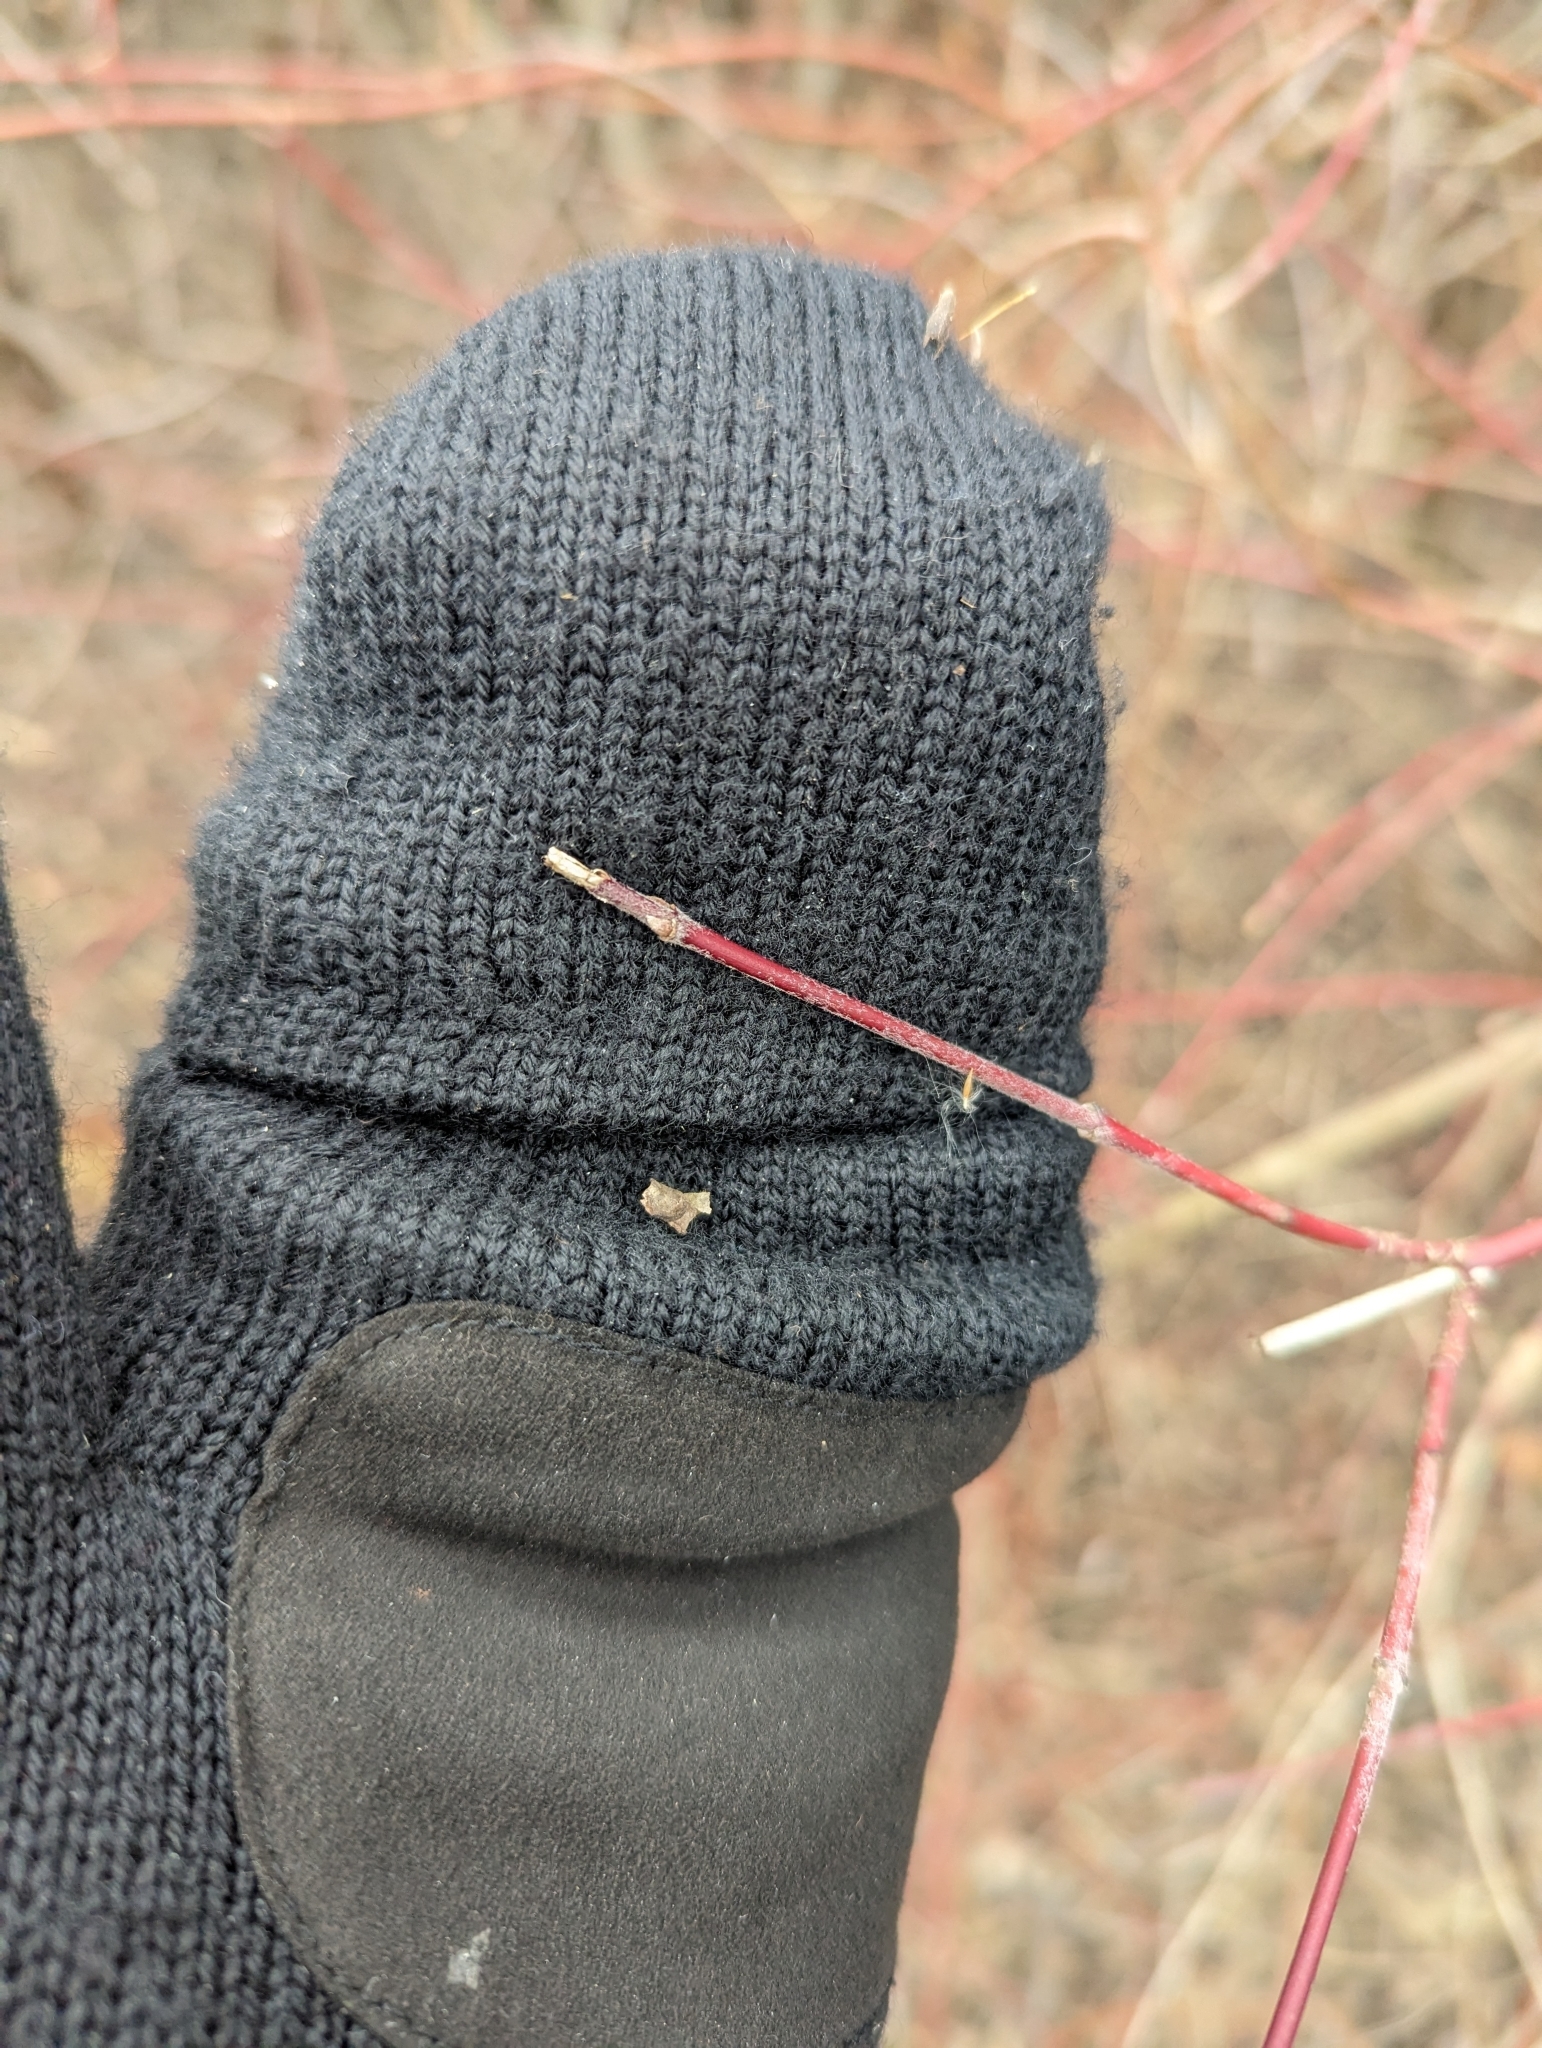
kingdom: Plantae
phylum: Tracheophyta
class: Magnoliopsida
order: Cornales
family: Cornaceae
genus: Cornus
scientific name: Cornus sericea
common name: Red-osier dogwood
